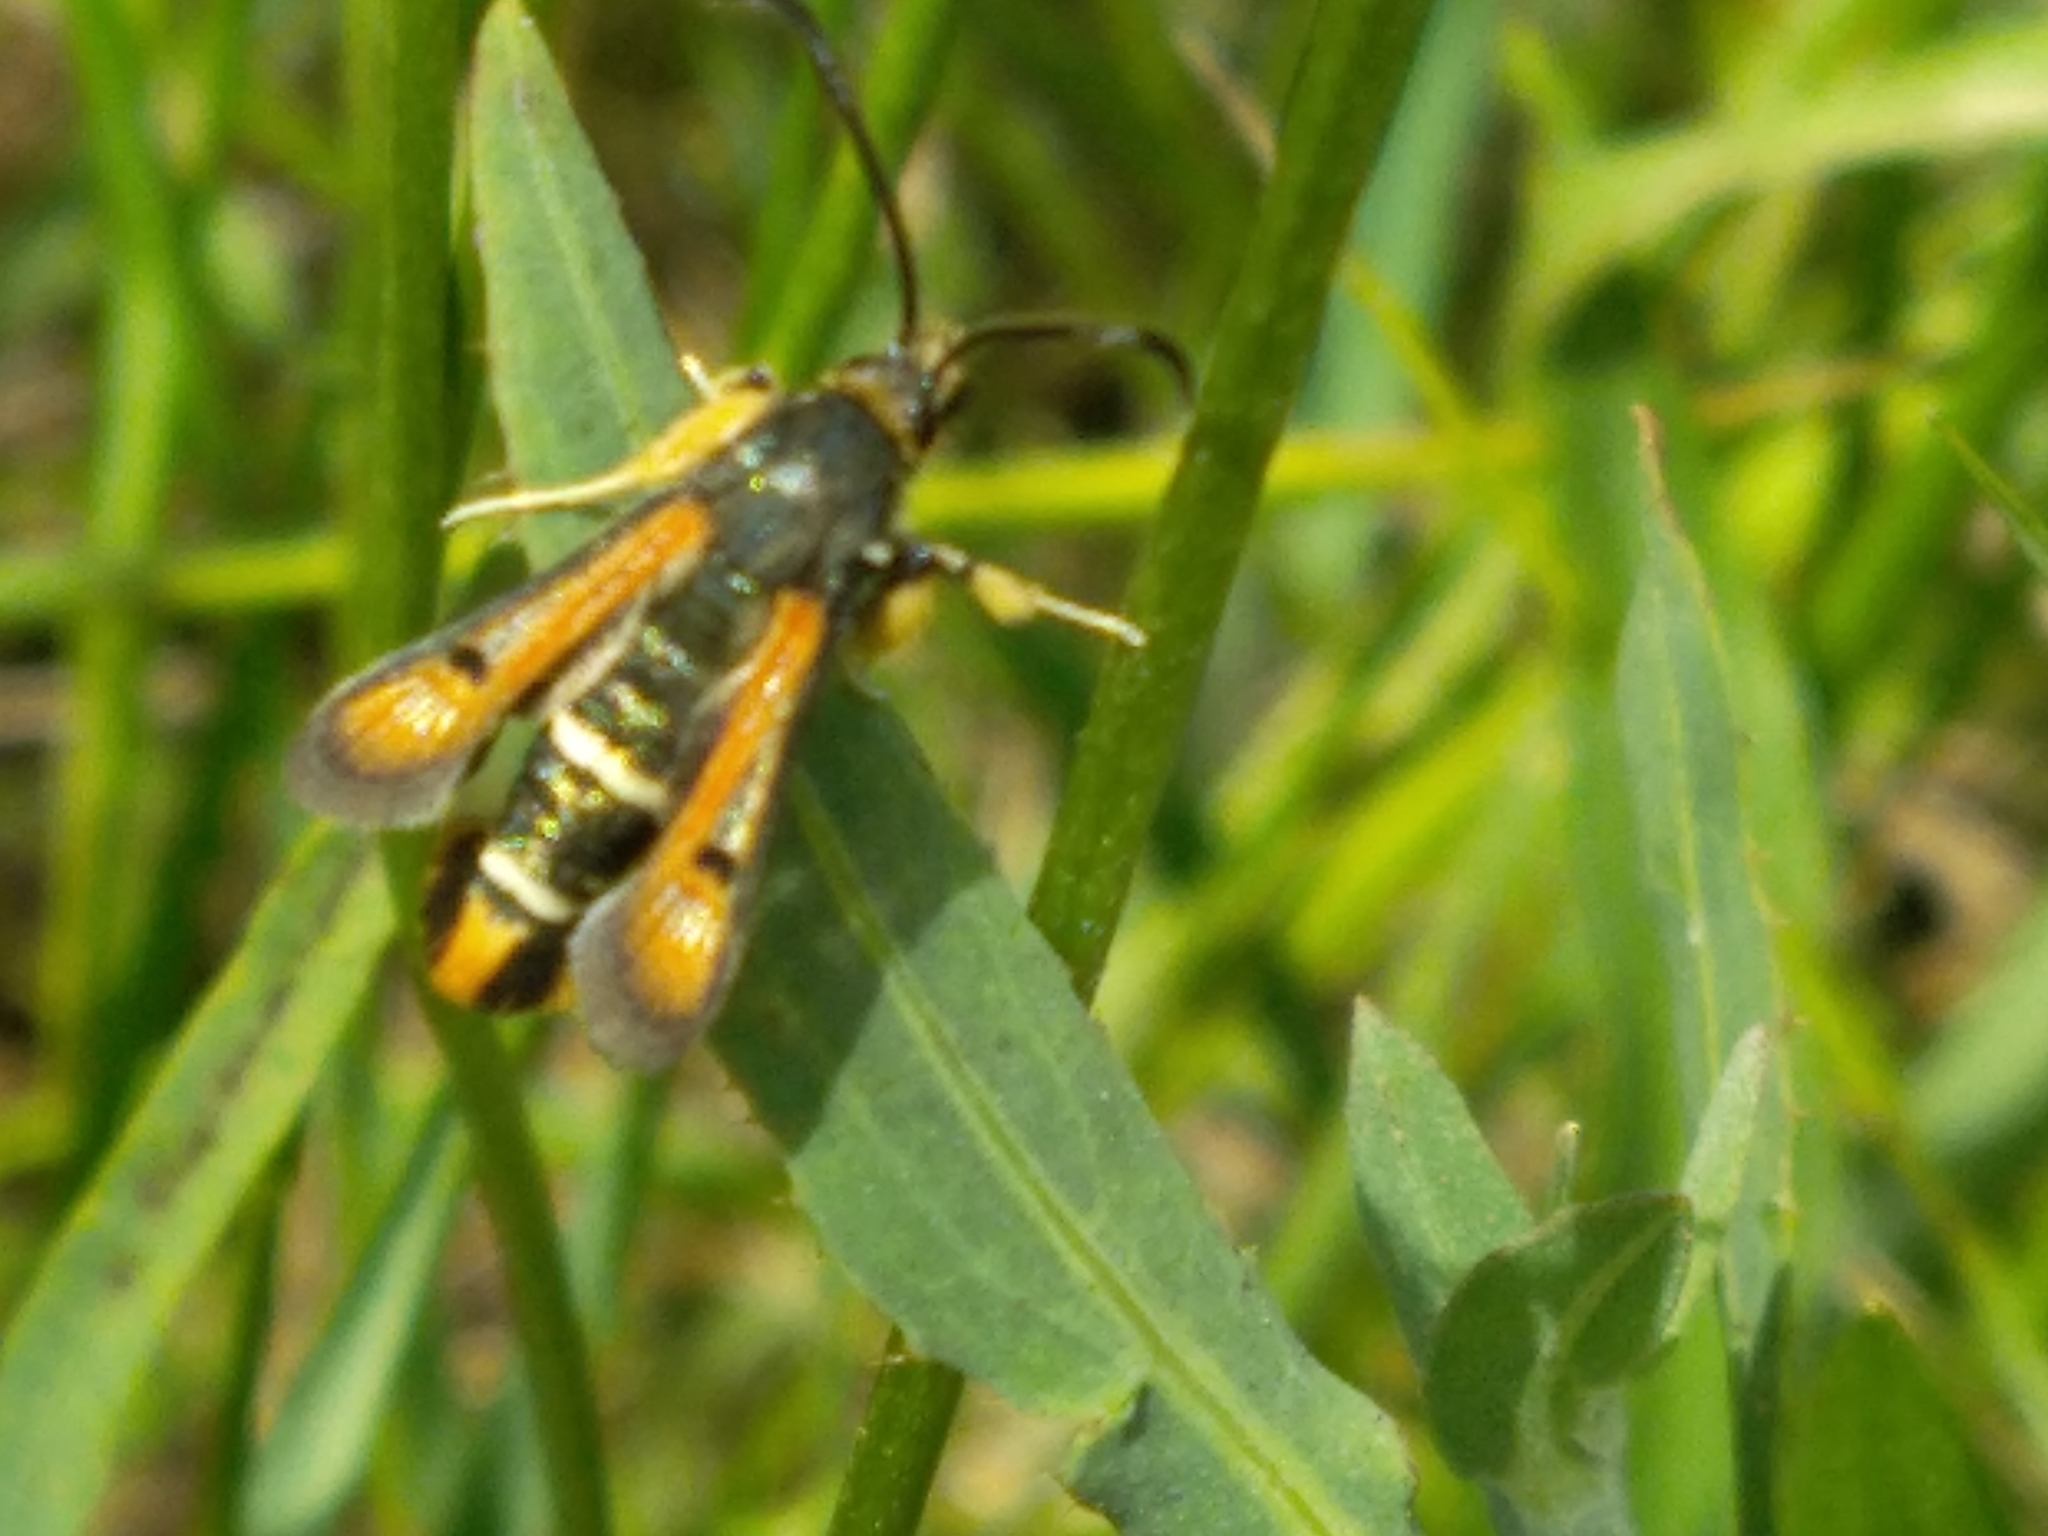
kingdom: Animalia
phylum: Arthropoda
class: Insecta
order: Lepidoptera
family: Sesiidae
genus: Pyropteron
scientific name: Pyropteron chrysidiforme
